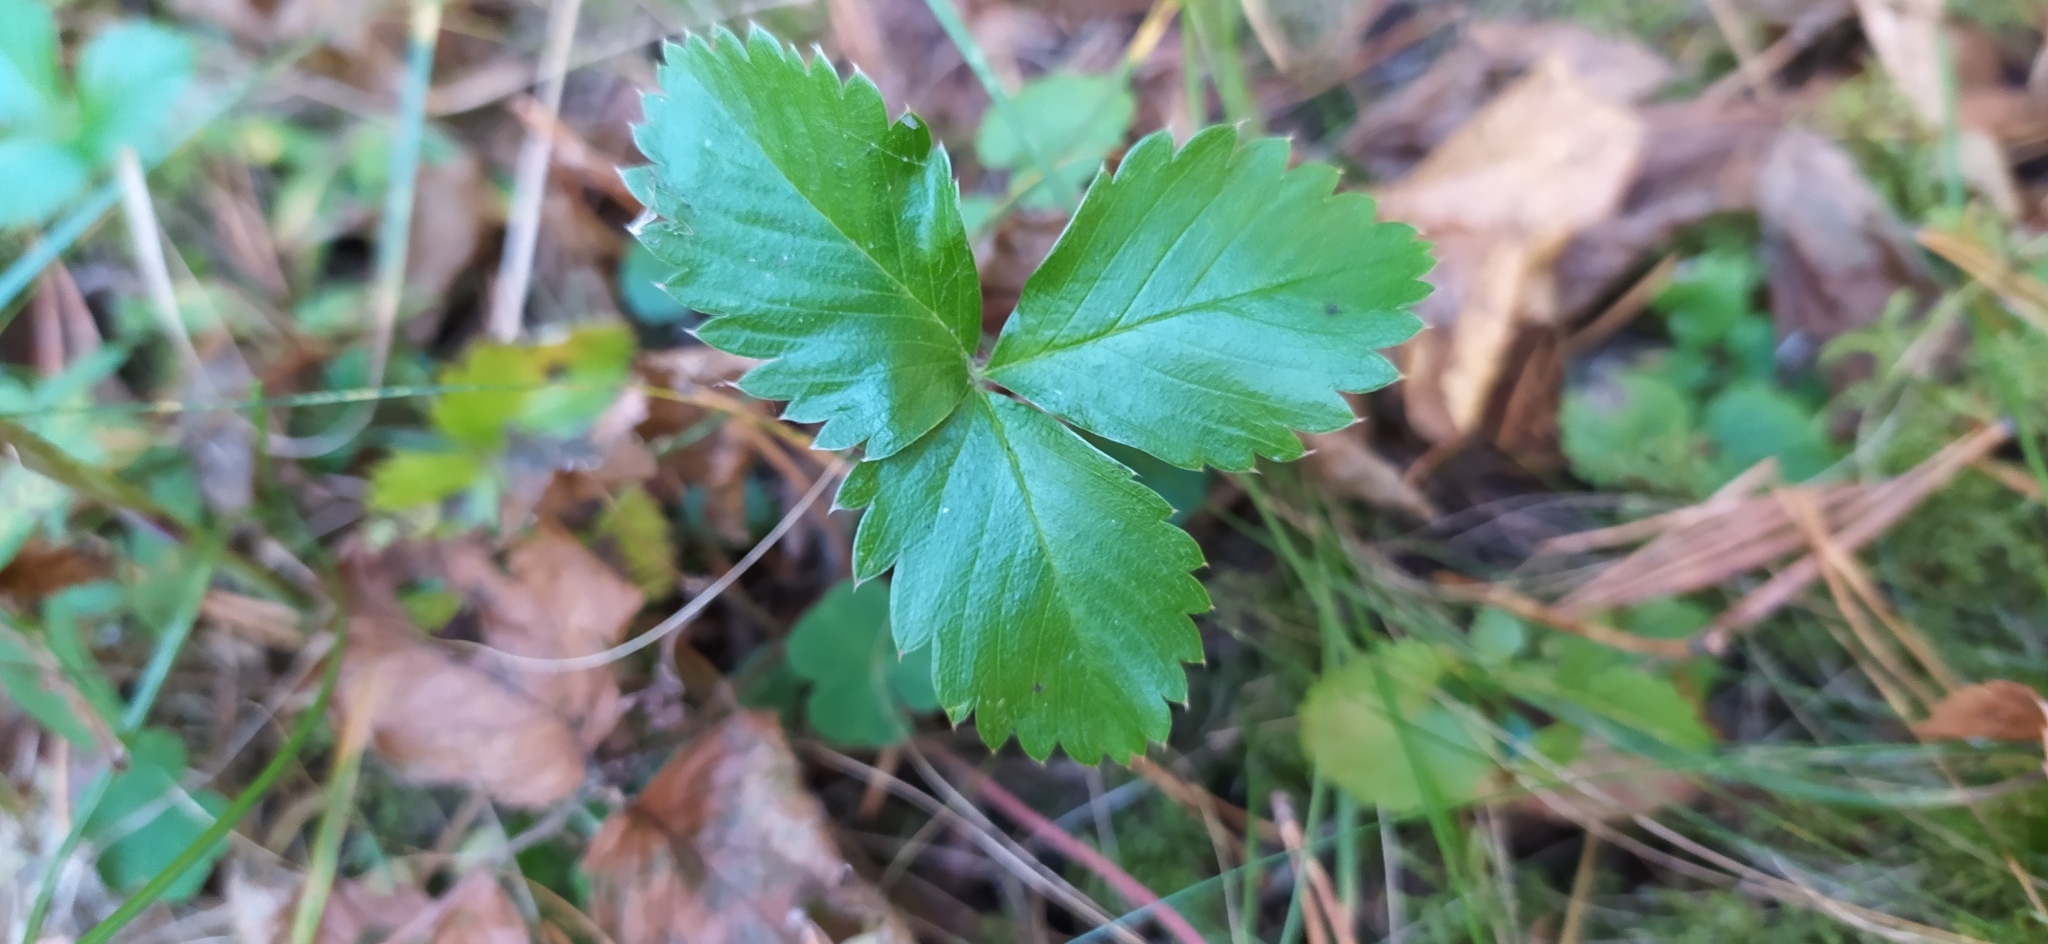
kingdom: Plantae
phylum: Tracheophyta
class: Magnoliopsida
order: Rosales
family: Rosaceae
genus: Fragaria
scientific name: Fragaria vesca
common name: Wild strawberry
